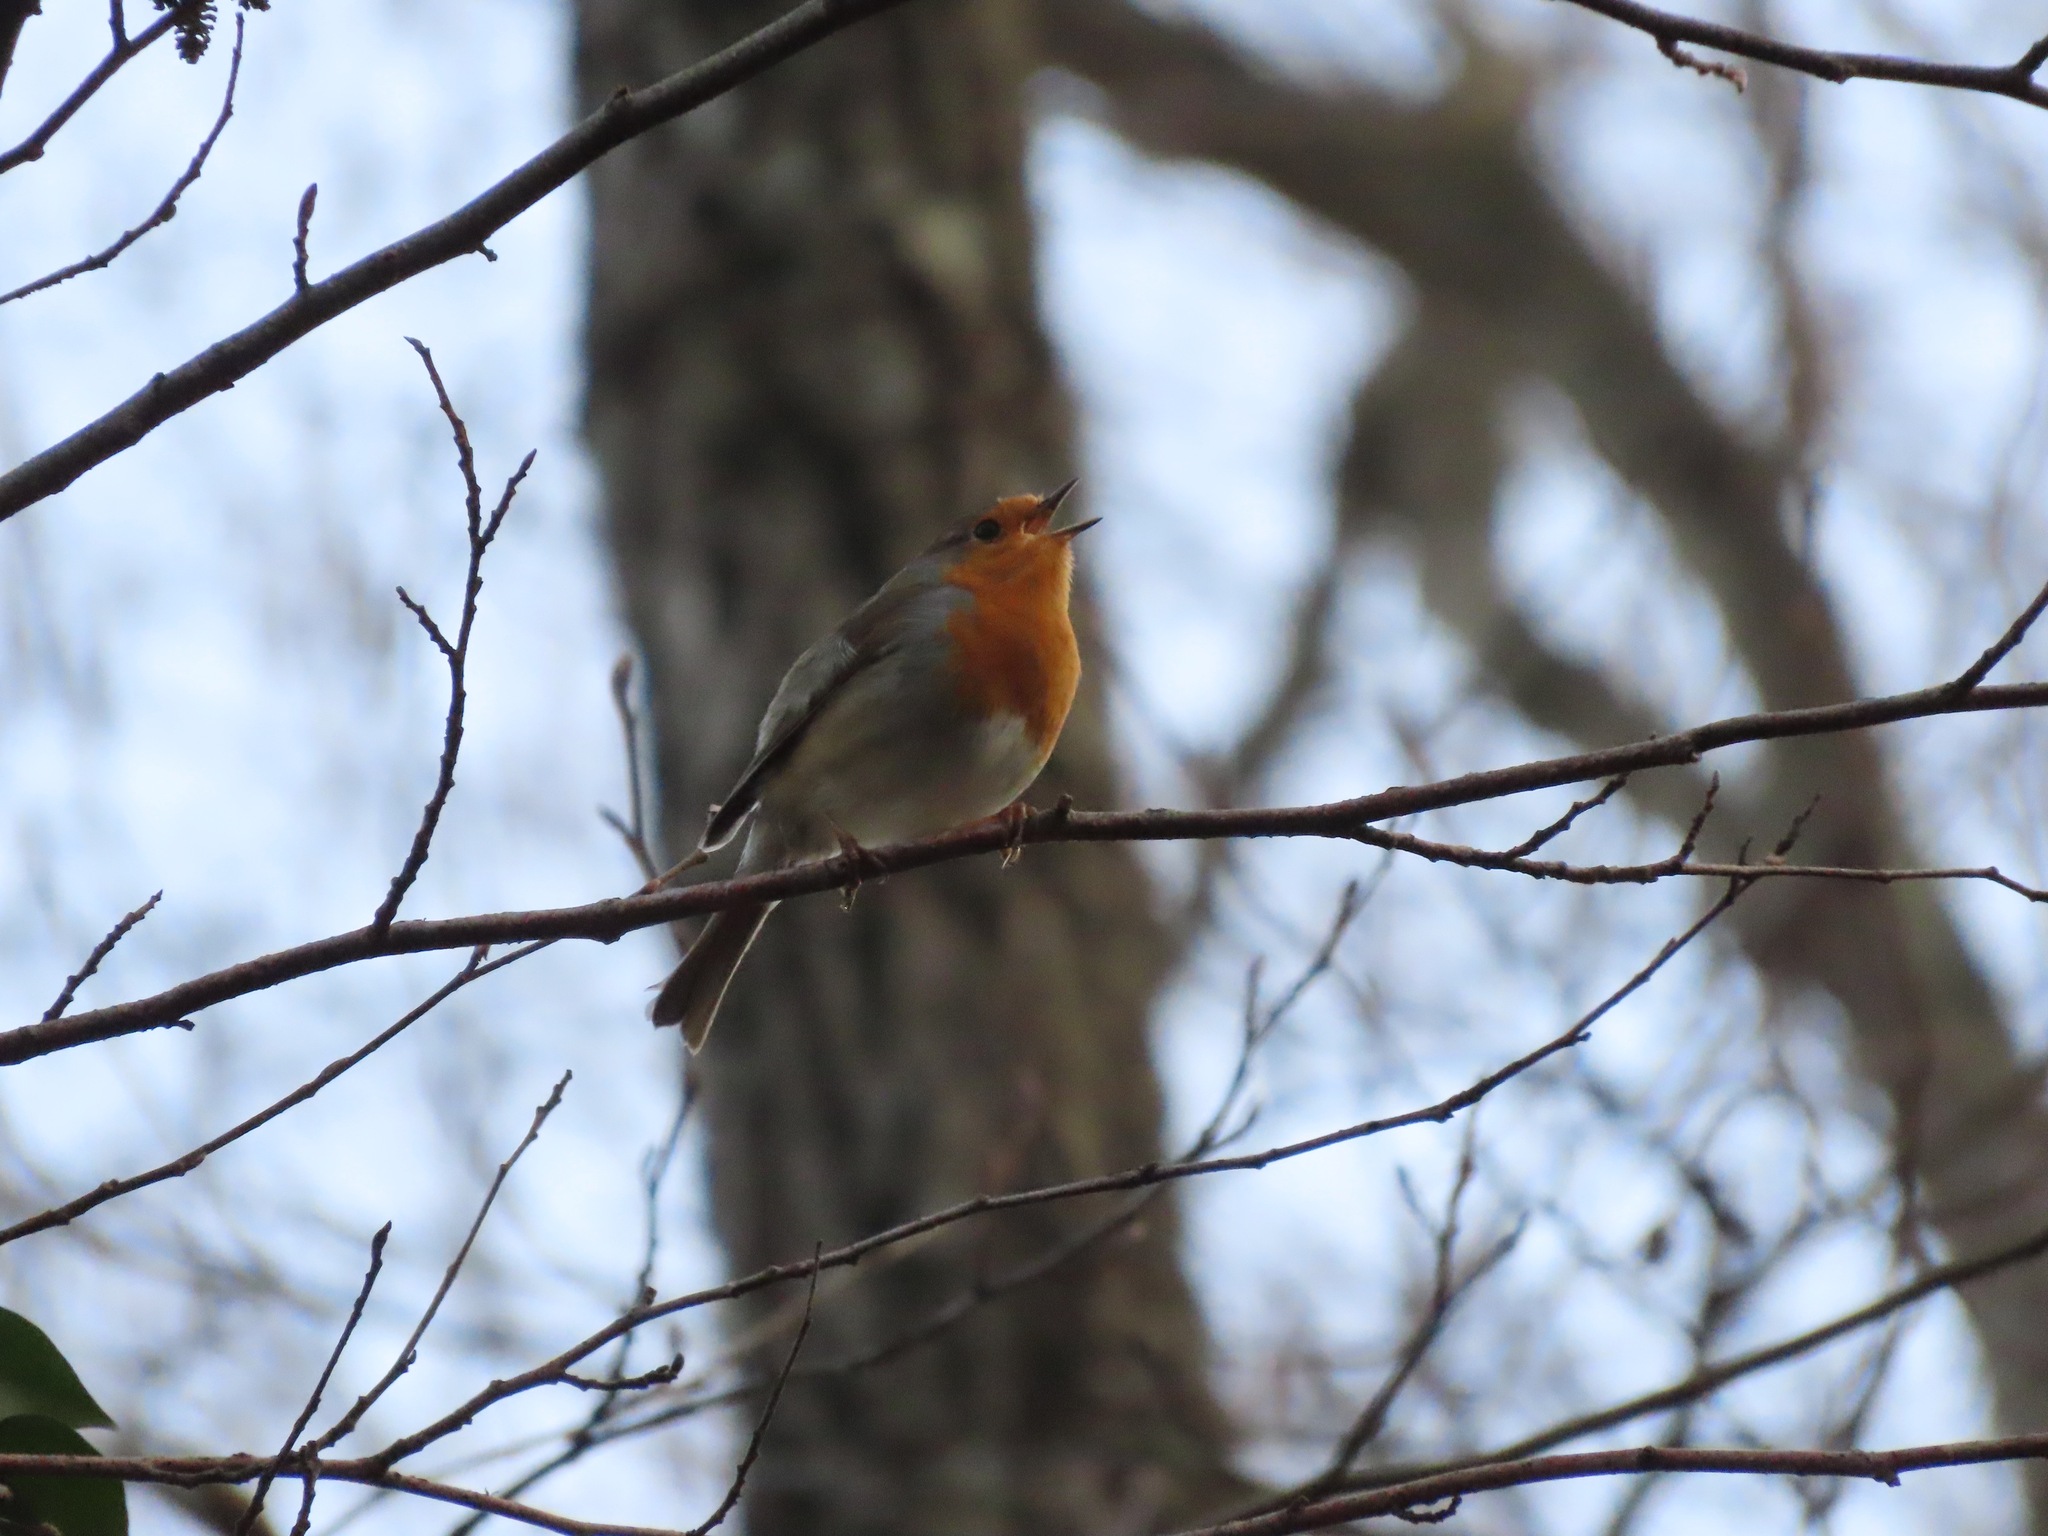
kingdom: Animalia
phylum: Chordata
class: Aves
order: Passeriformes
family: Muscicapidae
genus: Erithacus
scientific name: Erithacus rubecula
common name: European robin
